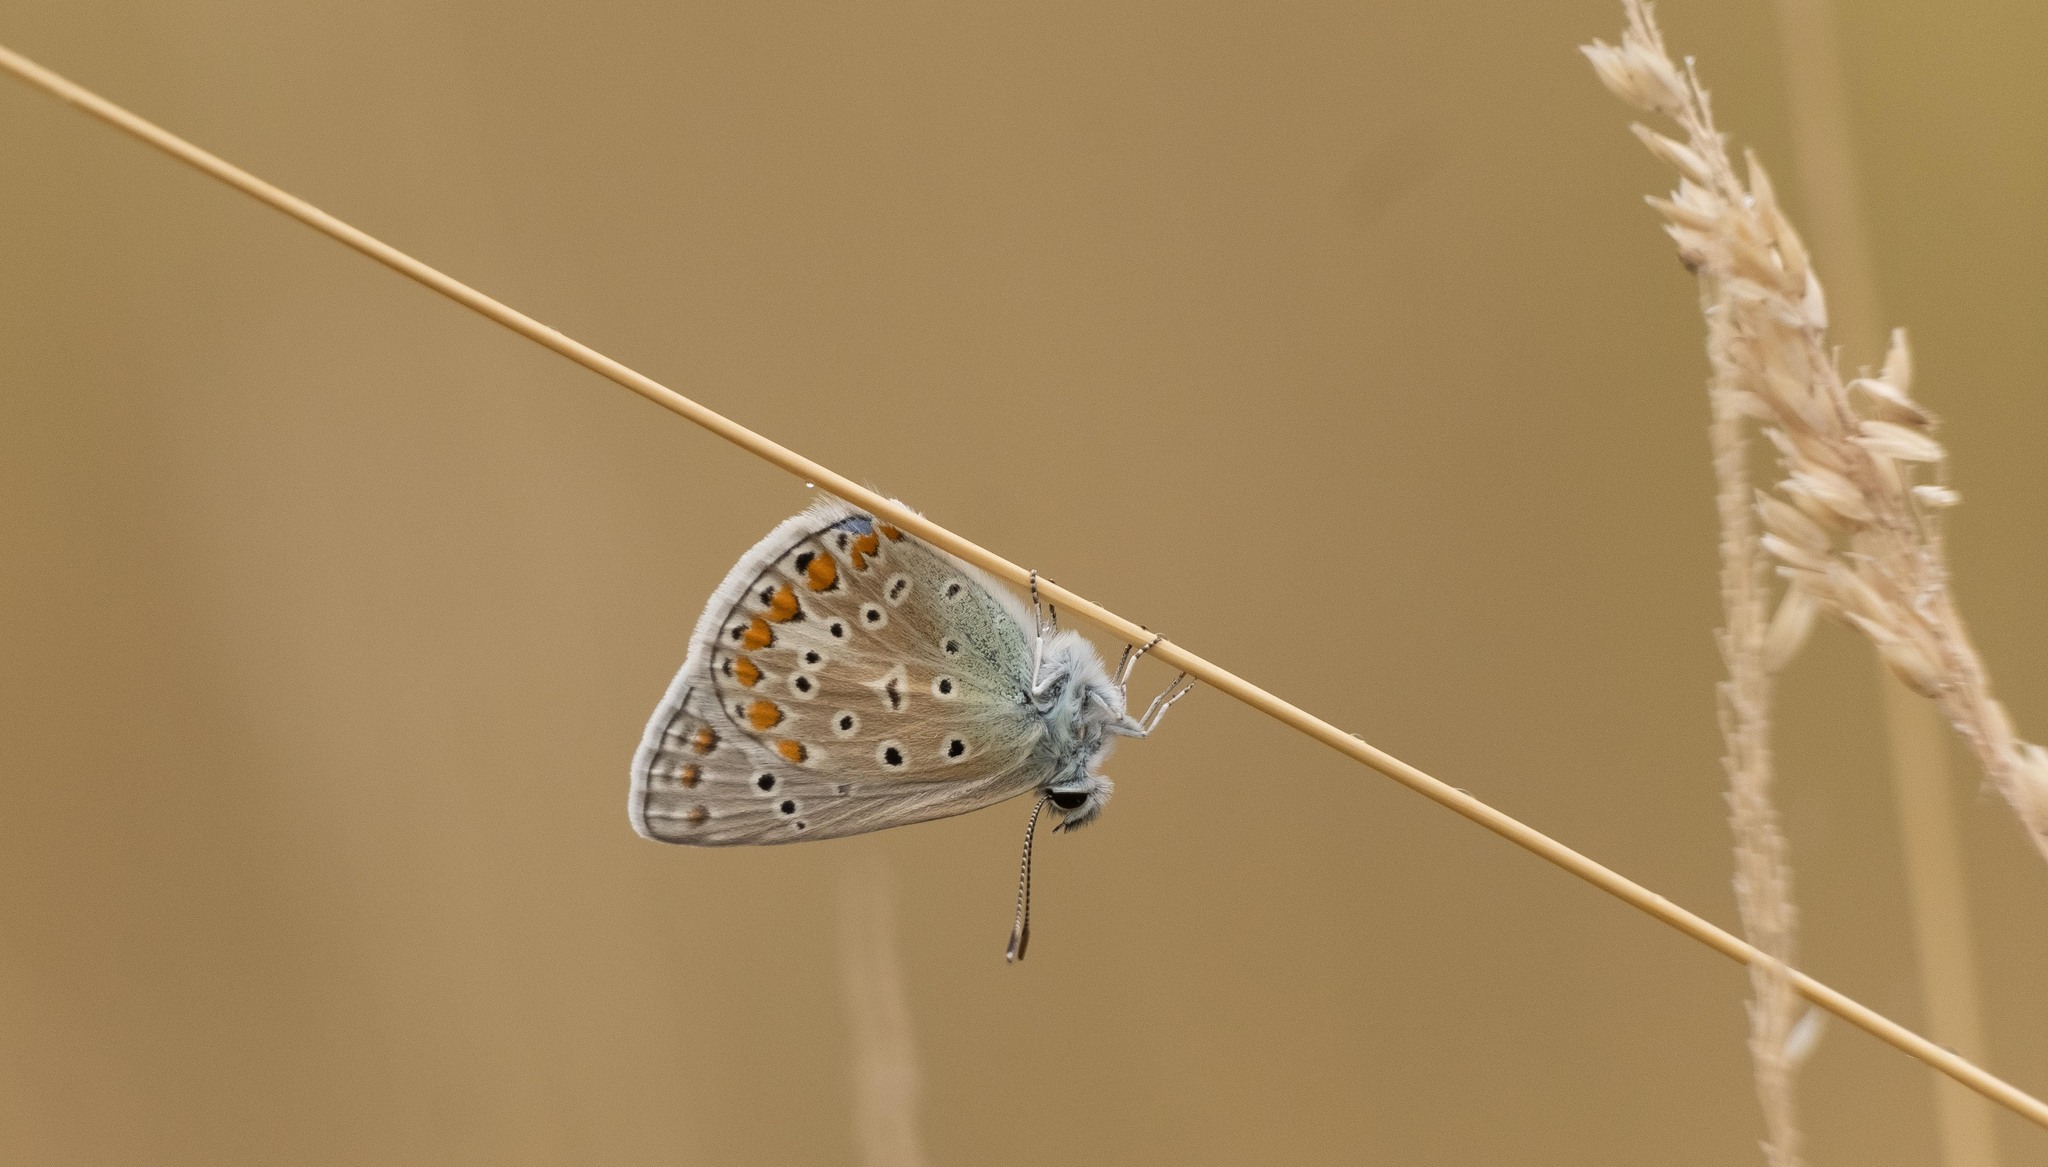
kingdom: Animalia
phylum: Arthropoda
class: Insecta
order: Lepidoptera
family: Lycaenidae
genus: Polyommatus
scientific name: Polyommatus icarus
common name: Common blue
